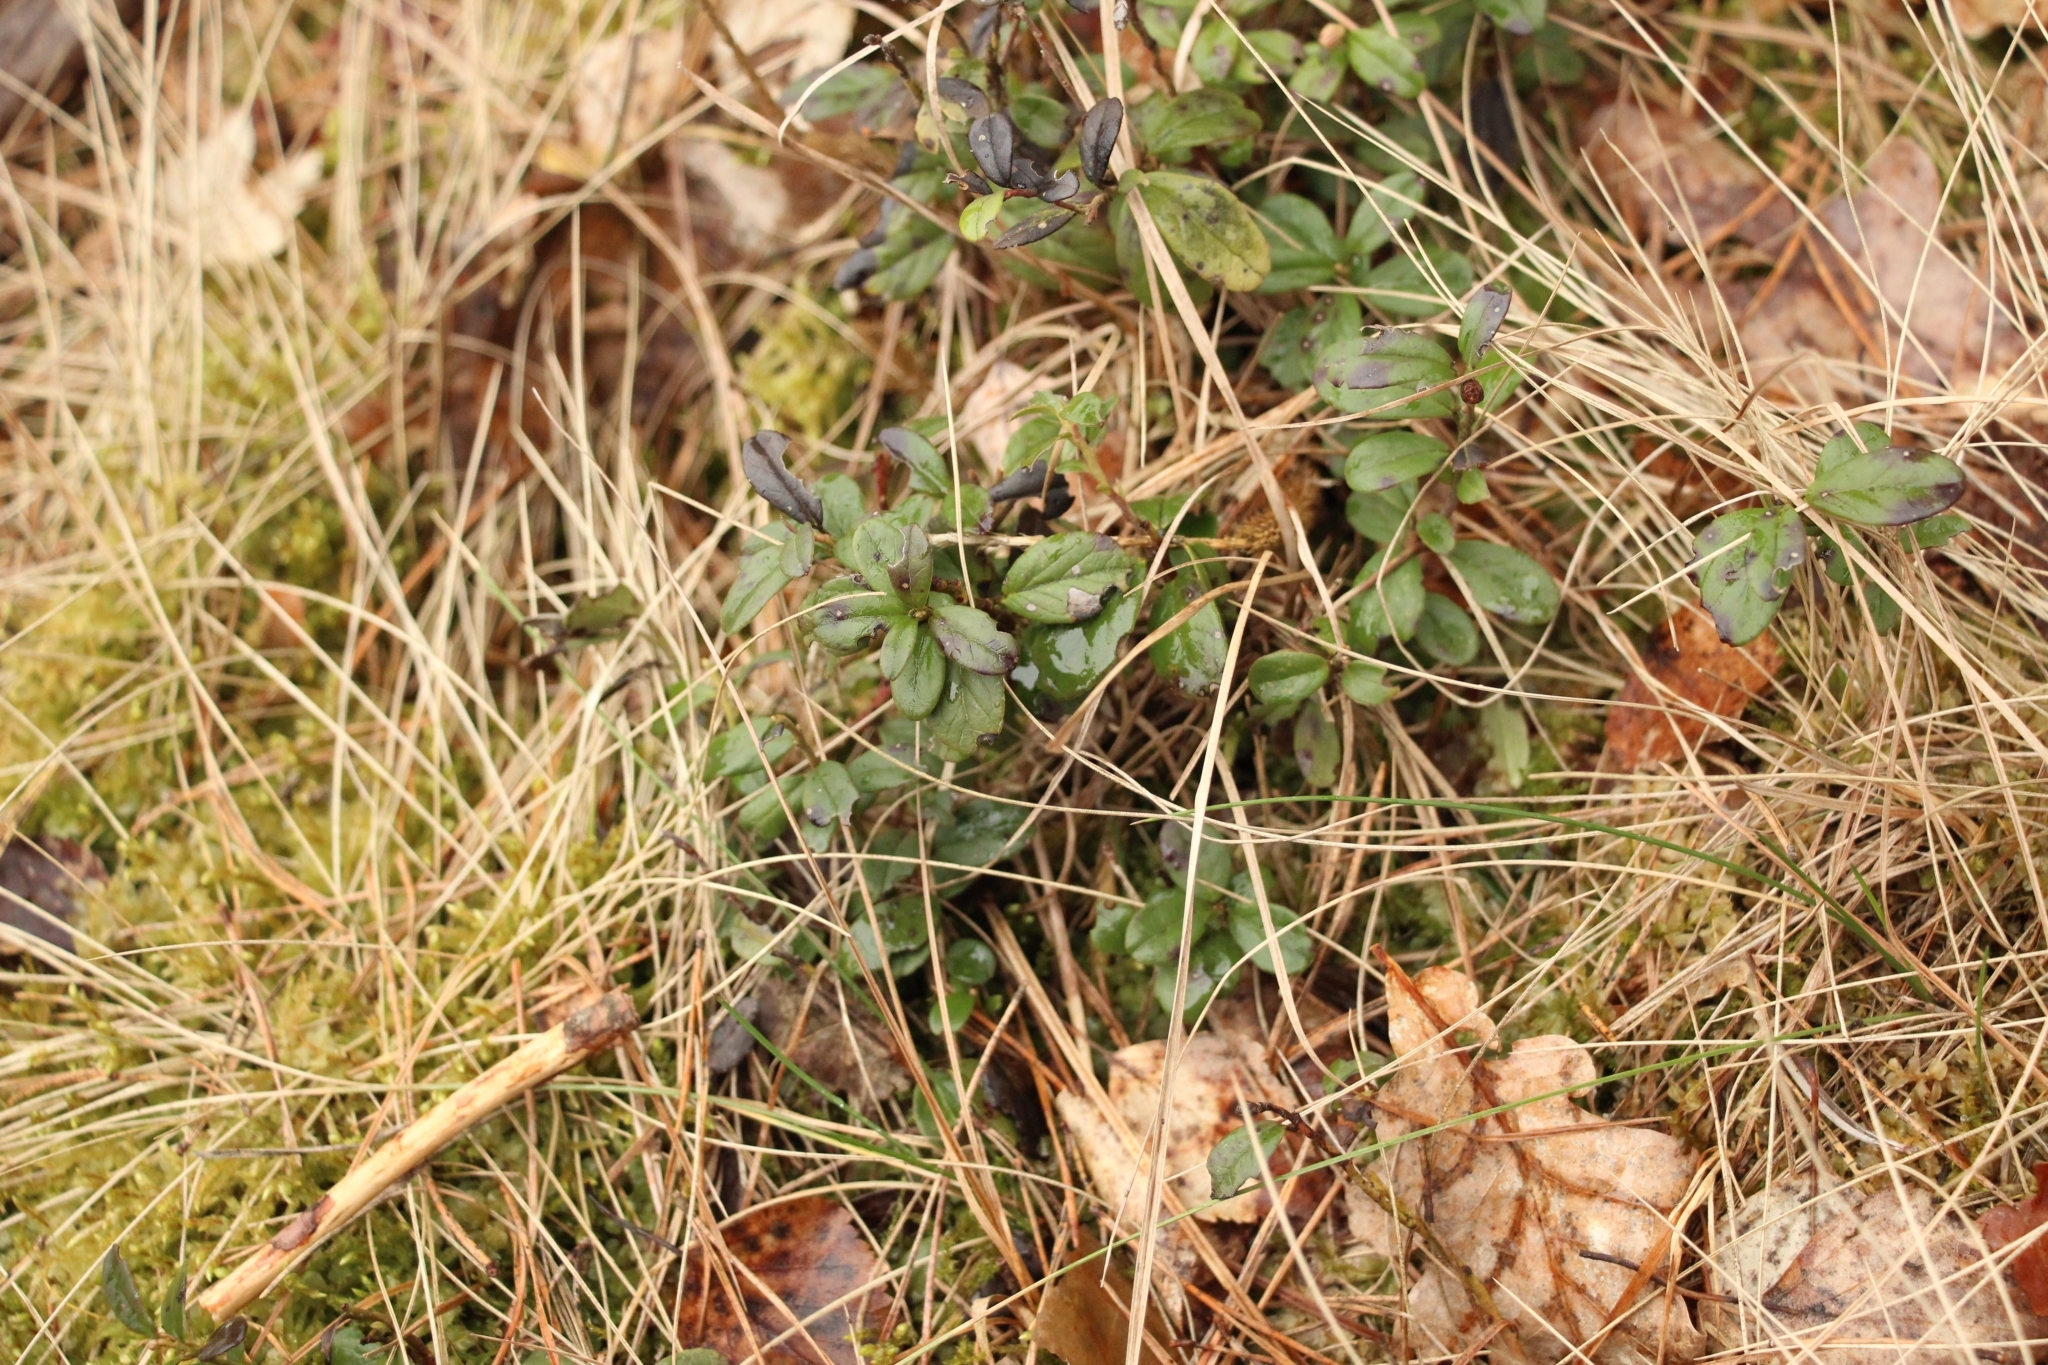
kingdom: Plantae
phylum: Tracheophyta
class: Magnoliopsida
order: Ericales
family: Ericaceae
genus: Vaccinium
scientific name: Vaccinium vitis-idaea
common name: Cowberry
